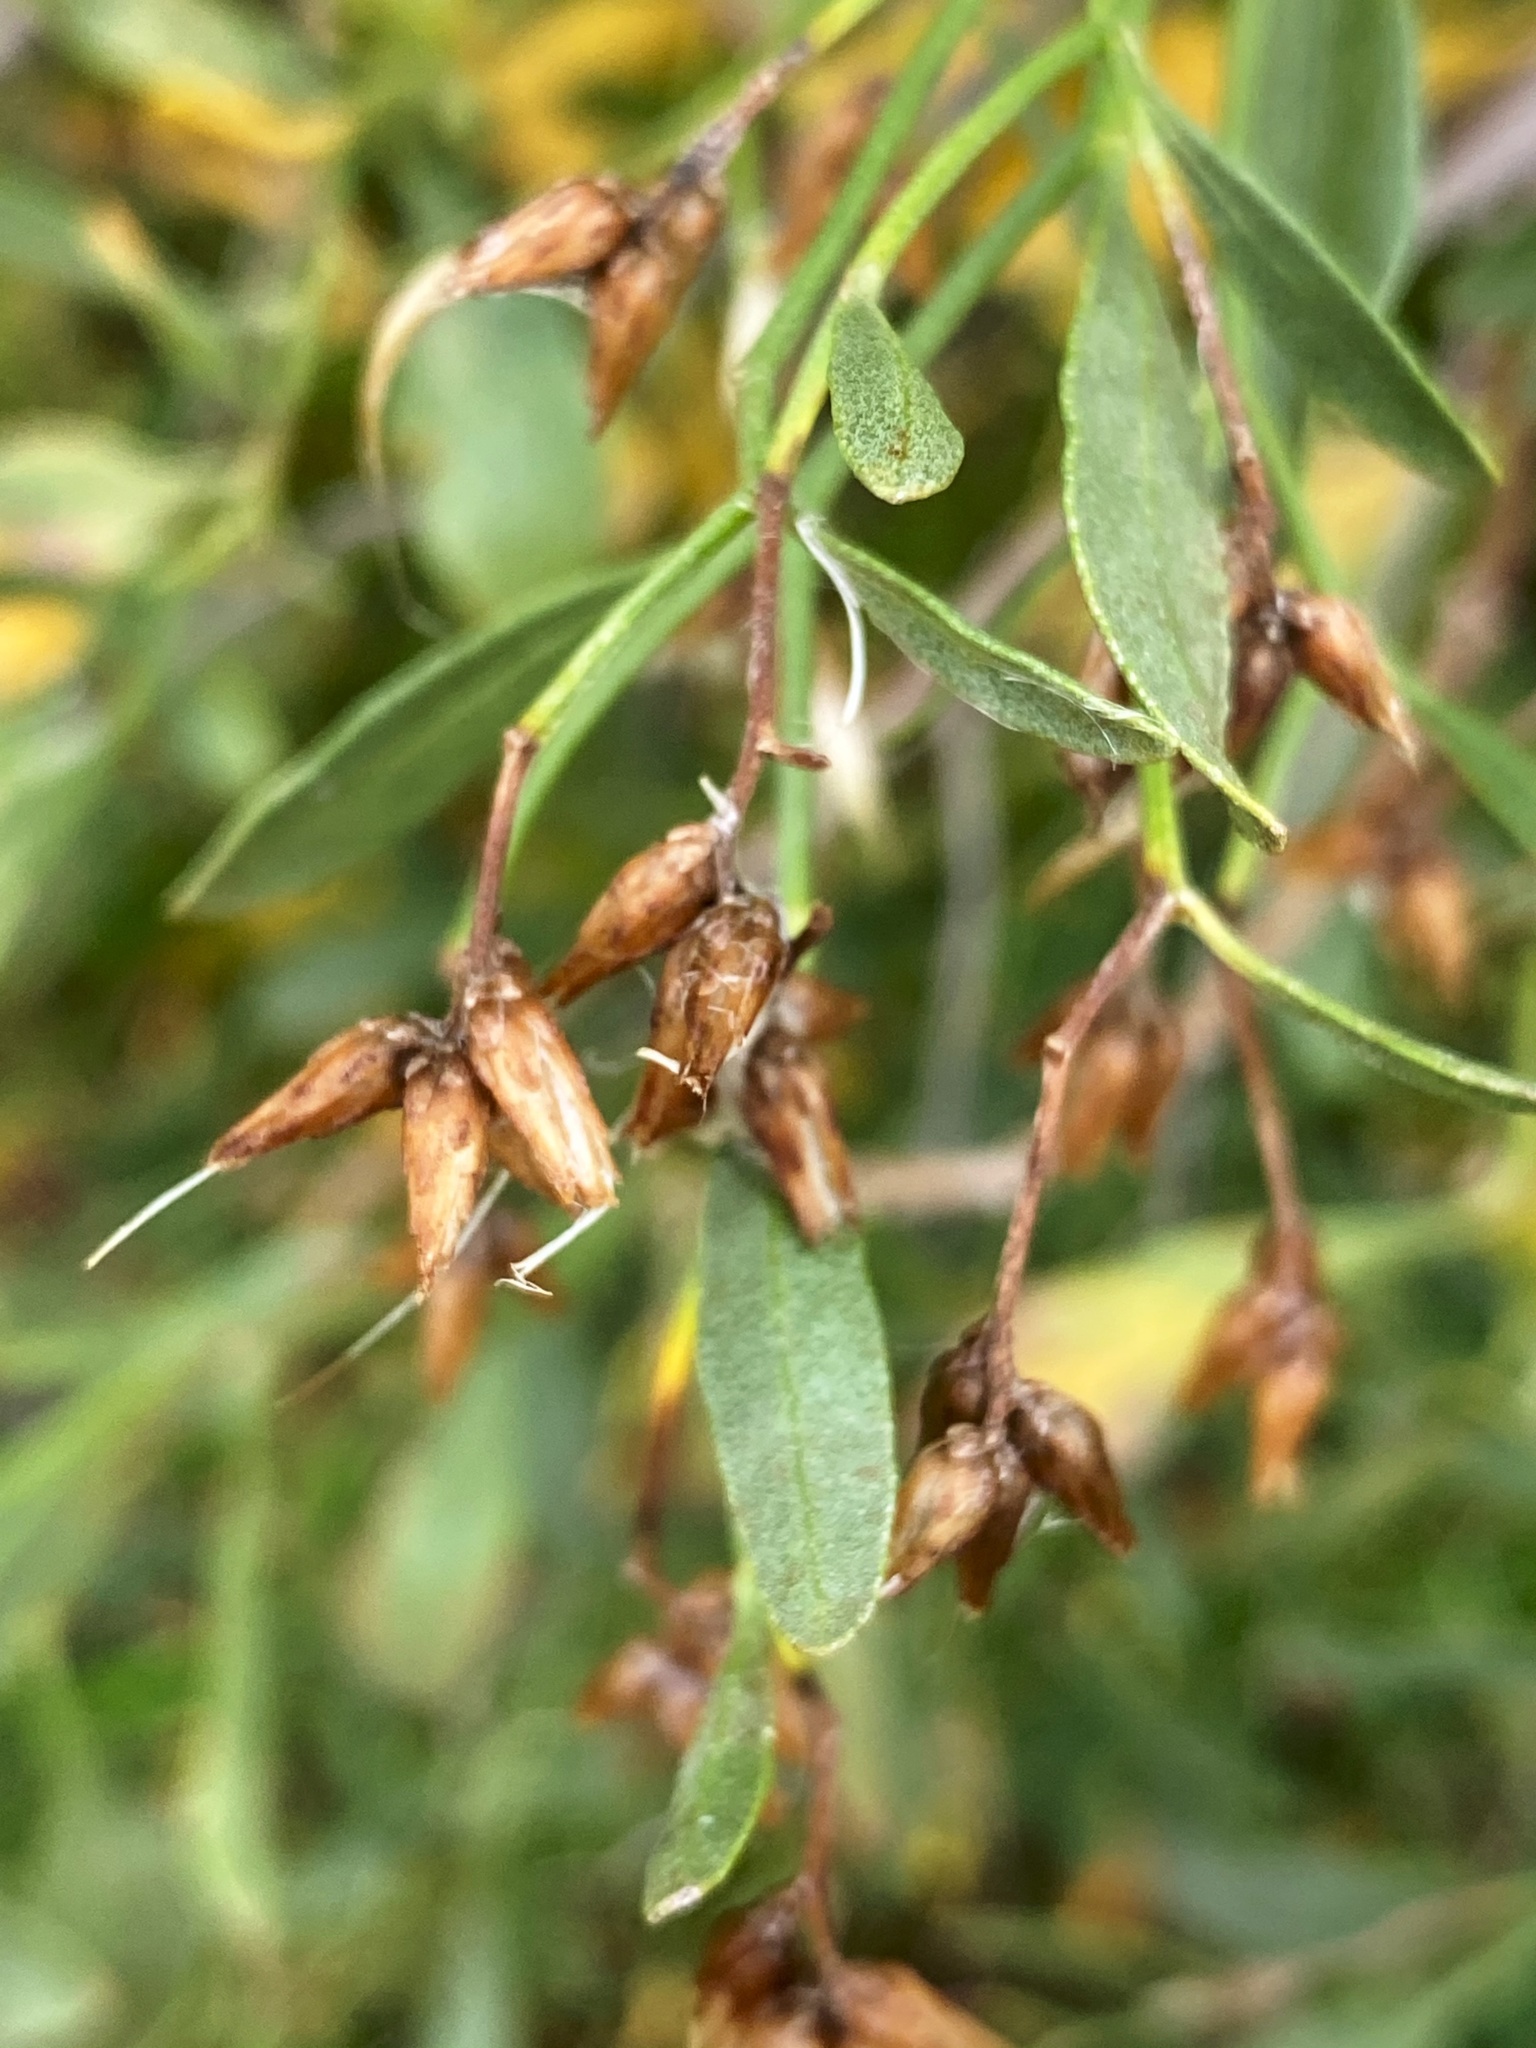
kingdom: Plantae
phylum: Tracheophyta
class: Magnoliopsida
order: Asterales
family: Asteraceae
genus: Baccharis
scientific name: Baccharis halimifolia
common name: Eastern baccharis
